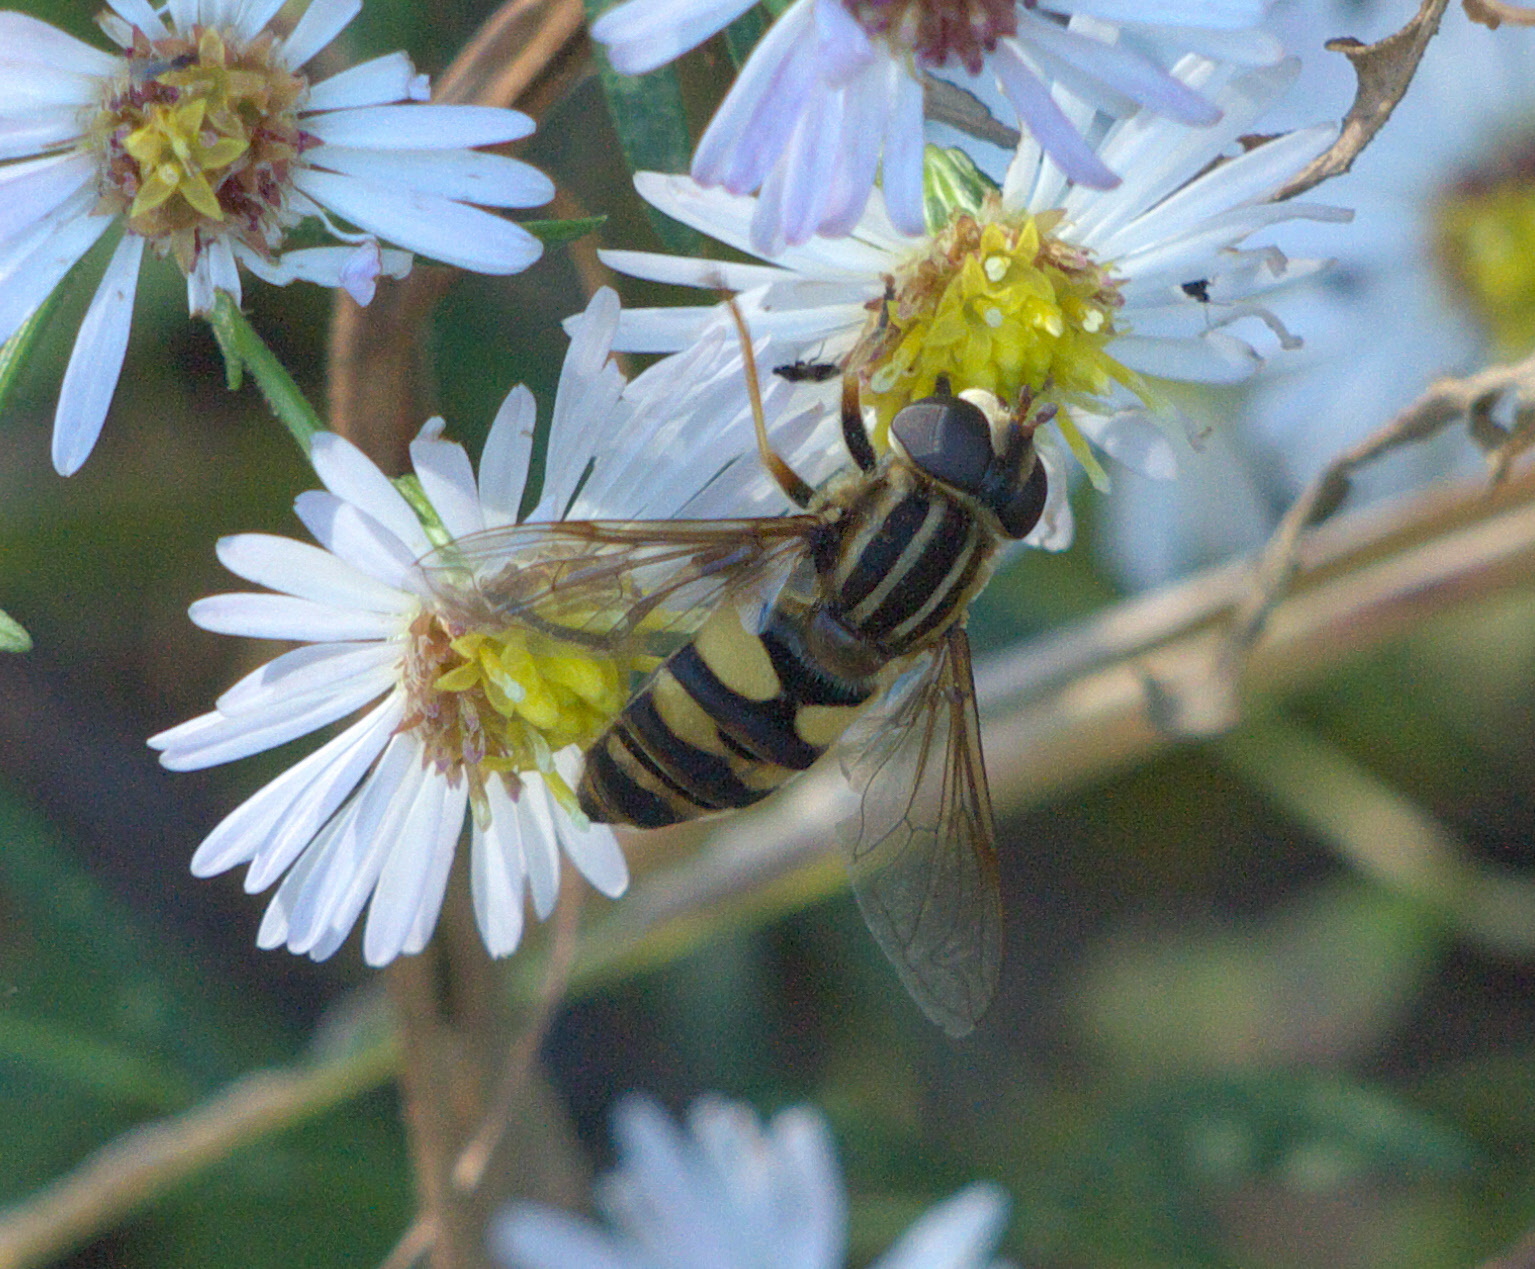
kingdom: Animalia
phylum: Arthropoda
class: Insecta
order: Diptera
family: Syrphidae
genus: Helophilus
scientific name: Helophilus fasciatus
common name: Narrow-headed marsh fly
